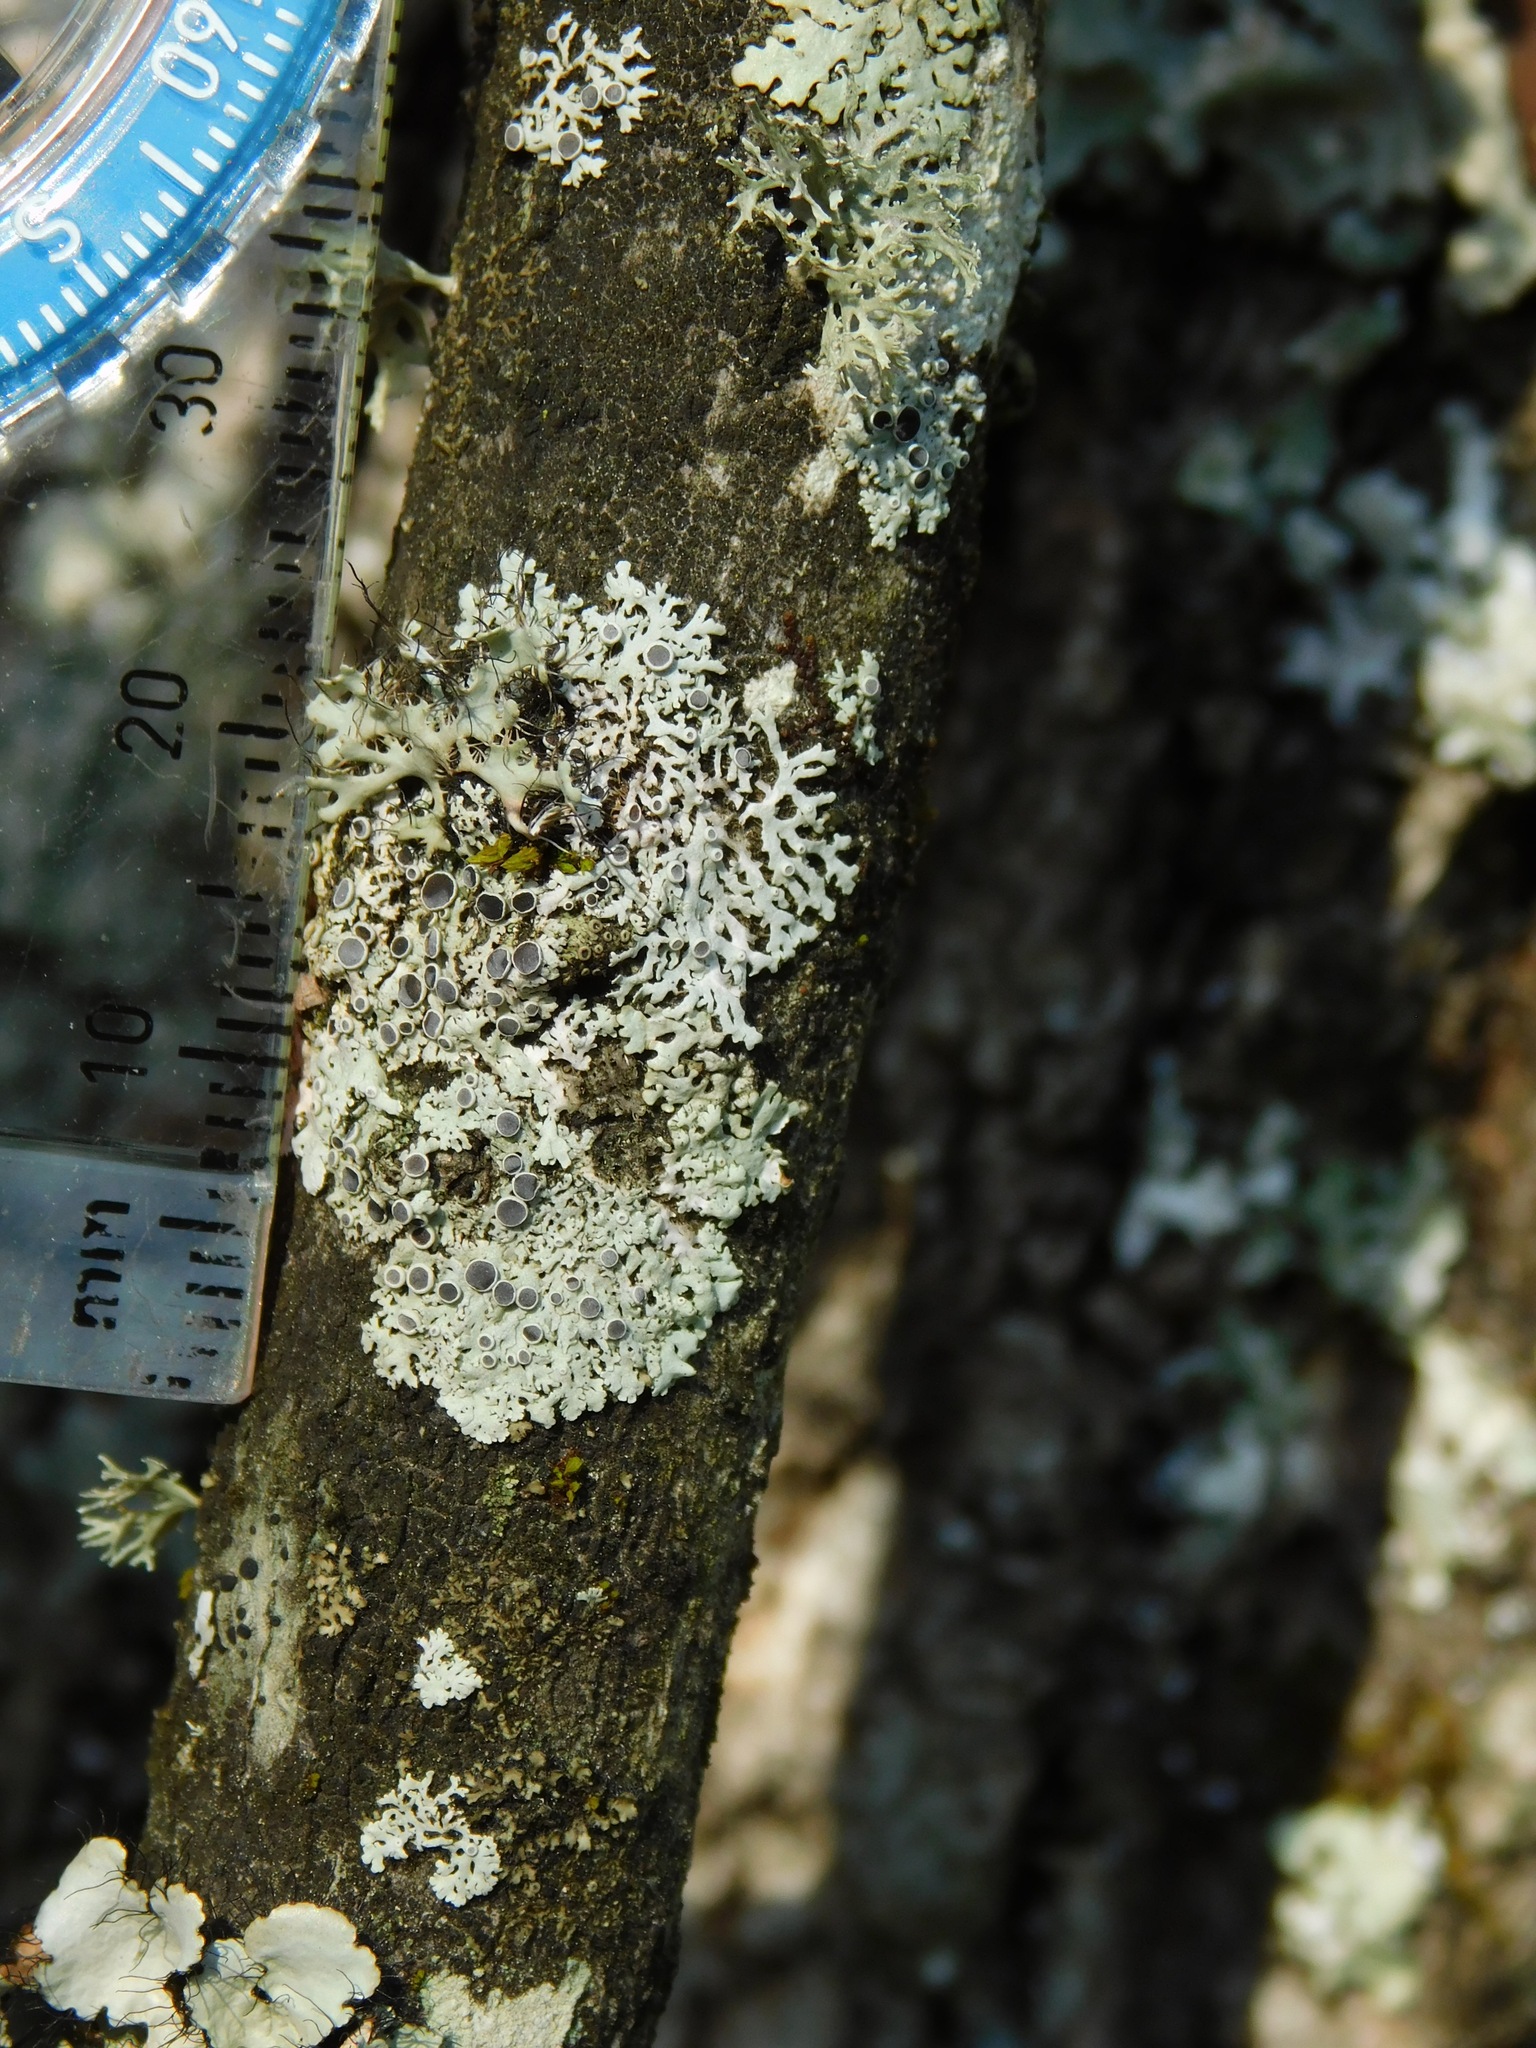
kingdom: Fungi
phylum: Ascomycota
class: Lecanoromycetes
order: Caliciales
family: Physciaceae
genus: Physcia
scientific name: Physcia pumilior
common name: Lesser gray legs
